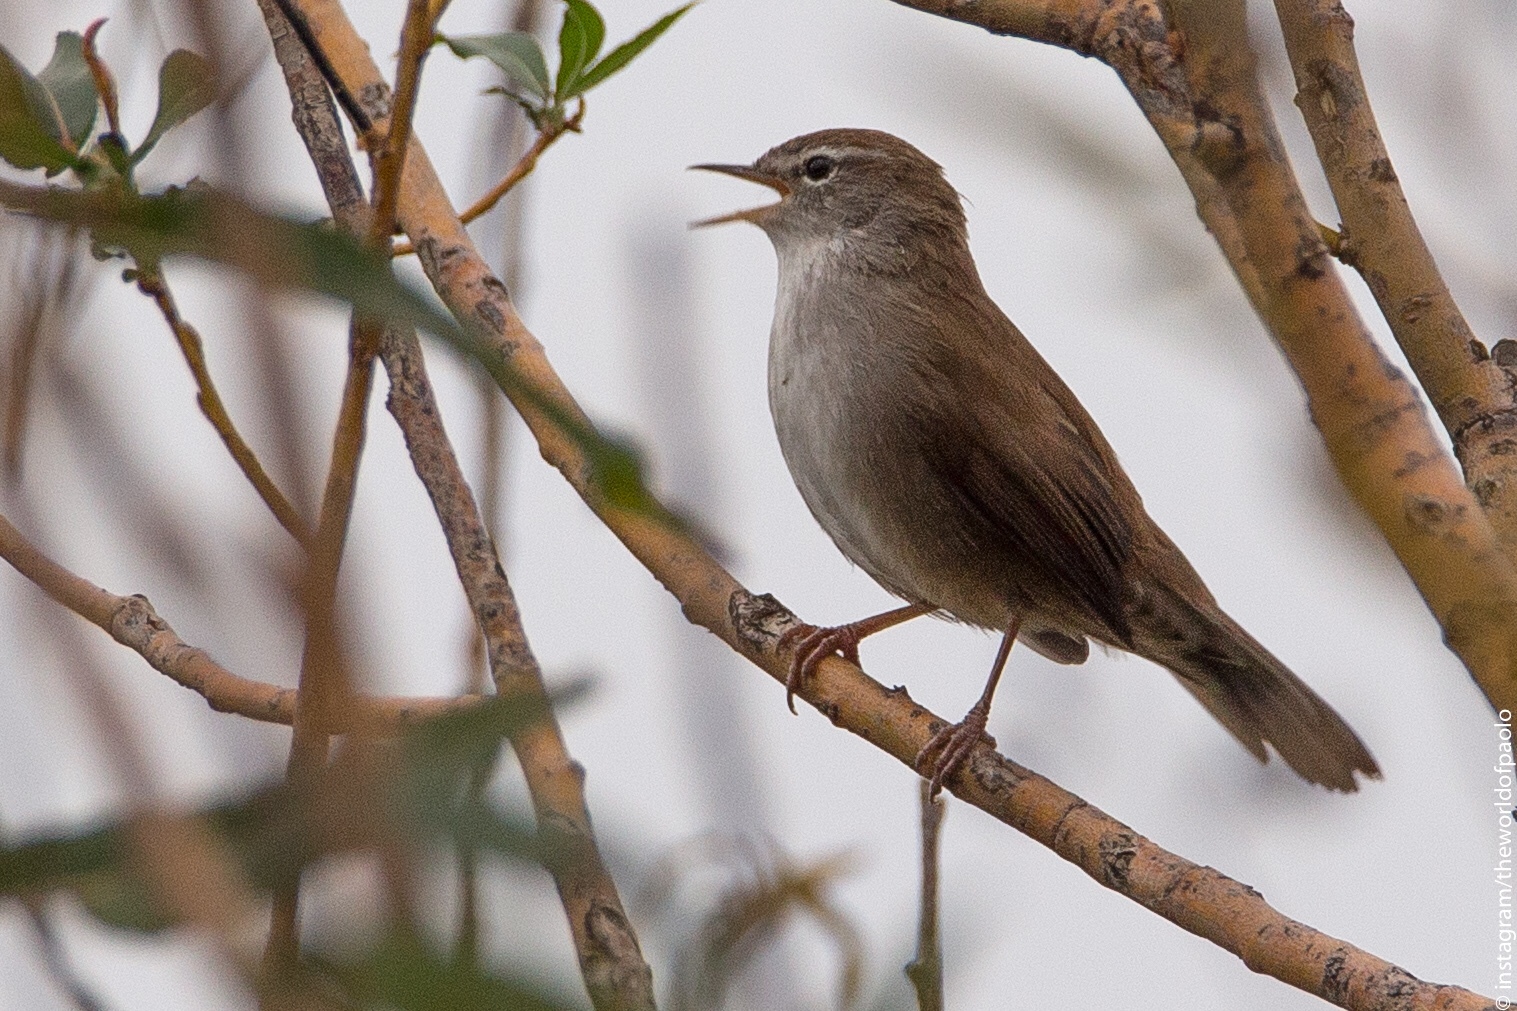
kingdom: Animalia
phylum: Chordata
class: Aves
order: Passeriformes
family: Cettiidae
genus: Cettia
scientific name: Cettia cetti
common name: Cetti's warbler
